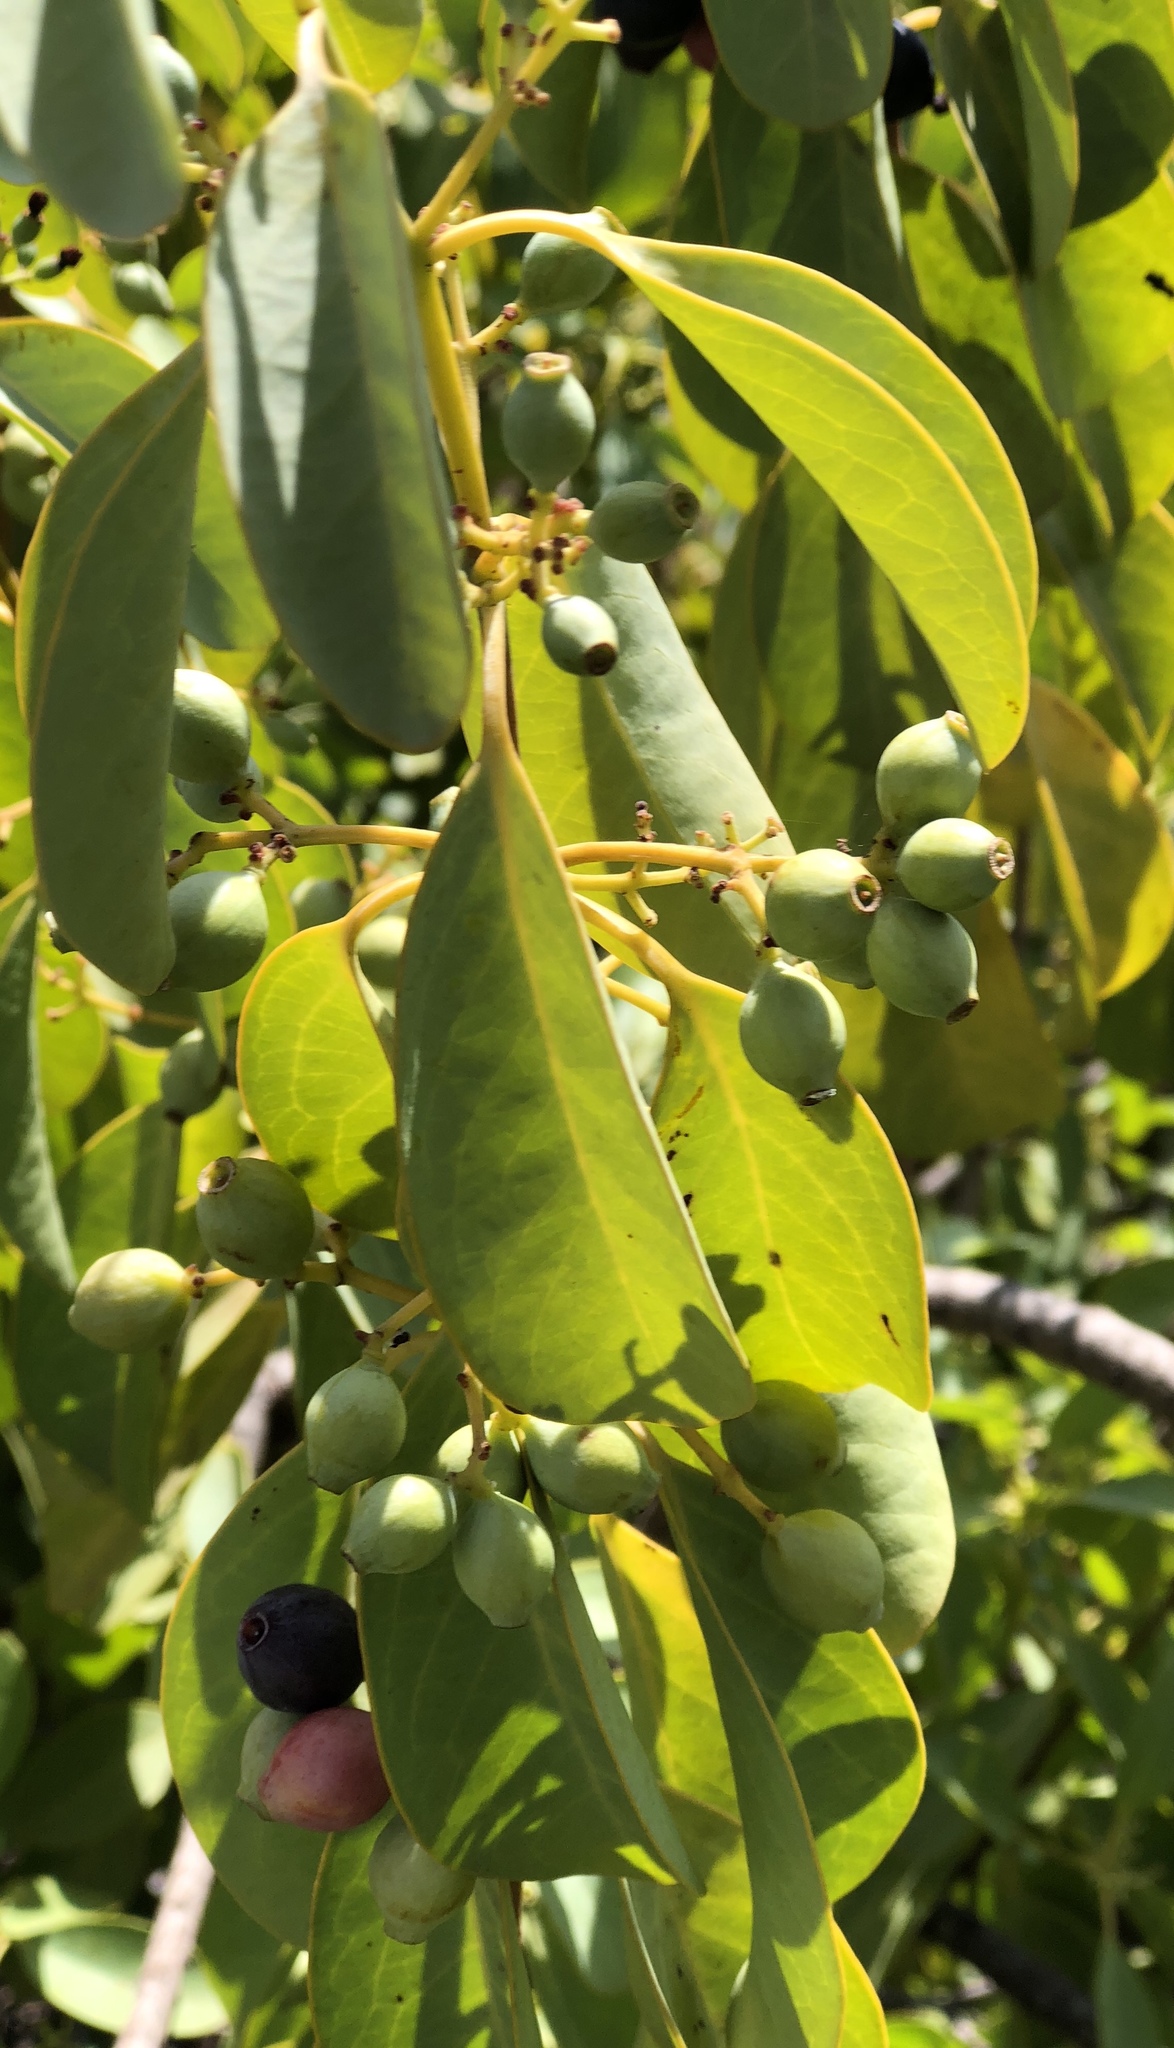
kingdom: Plantae
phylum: Tracheophyta
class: Magnoliopsida
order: Santalales
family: Santalaceae
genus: Santalum
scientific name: Santalum ellipticum
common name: Coast sandalwood
